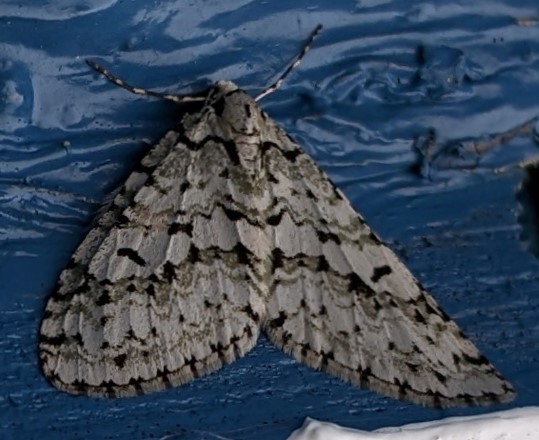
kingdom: Animalia
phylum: Arthropoda
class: Insecta
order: Lepidoptera
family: Geometridae
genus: Cladara
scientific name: Cladara atroliturata
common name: Scribbler
